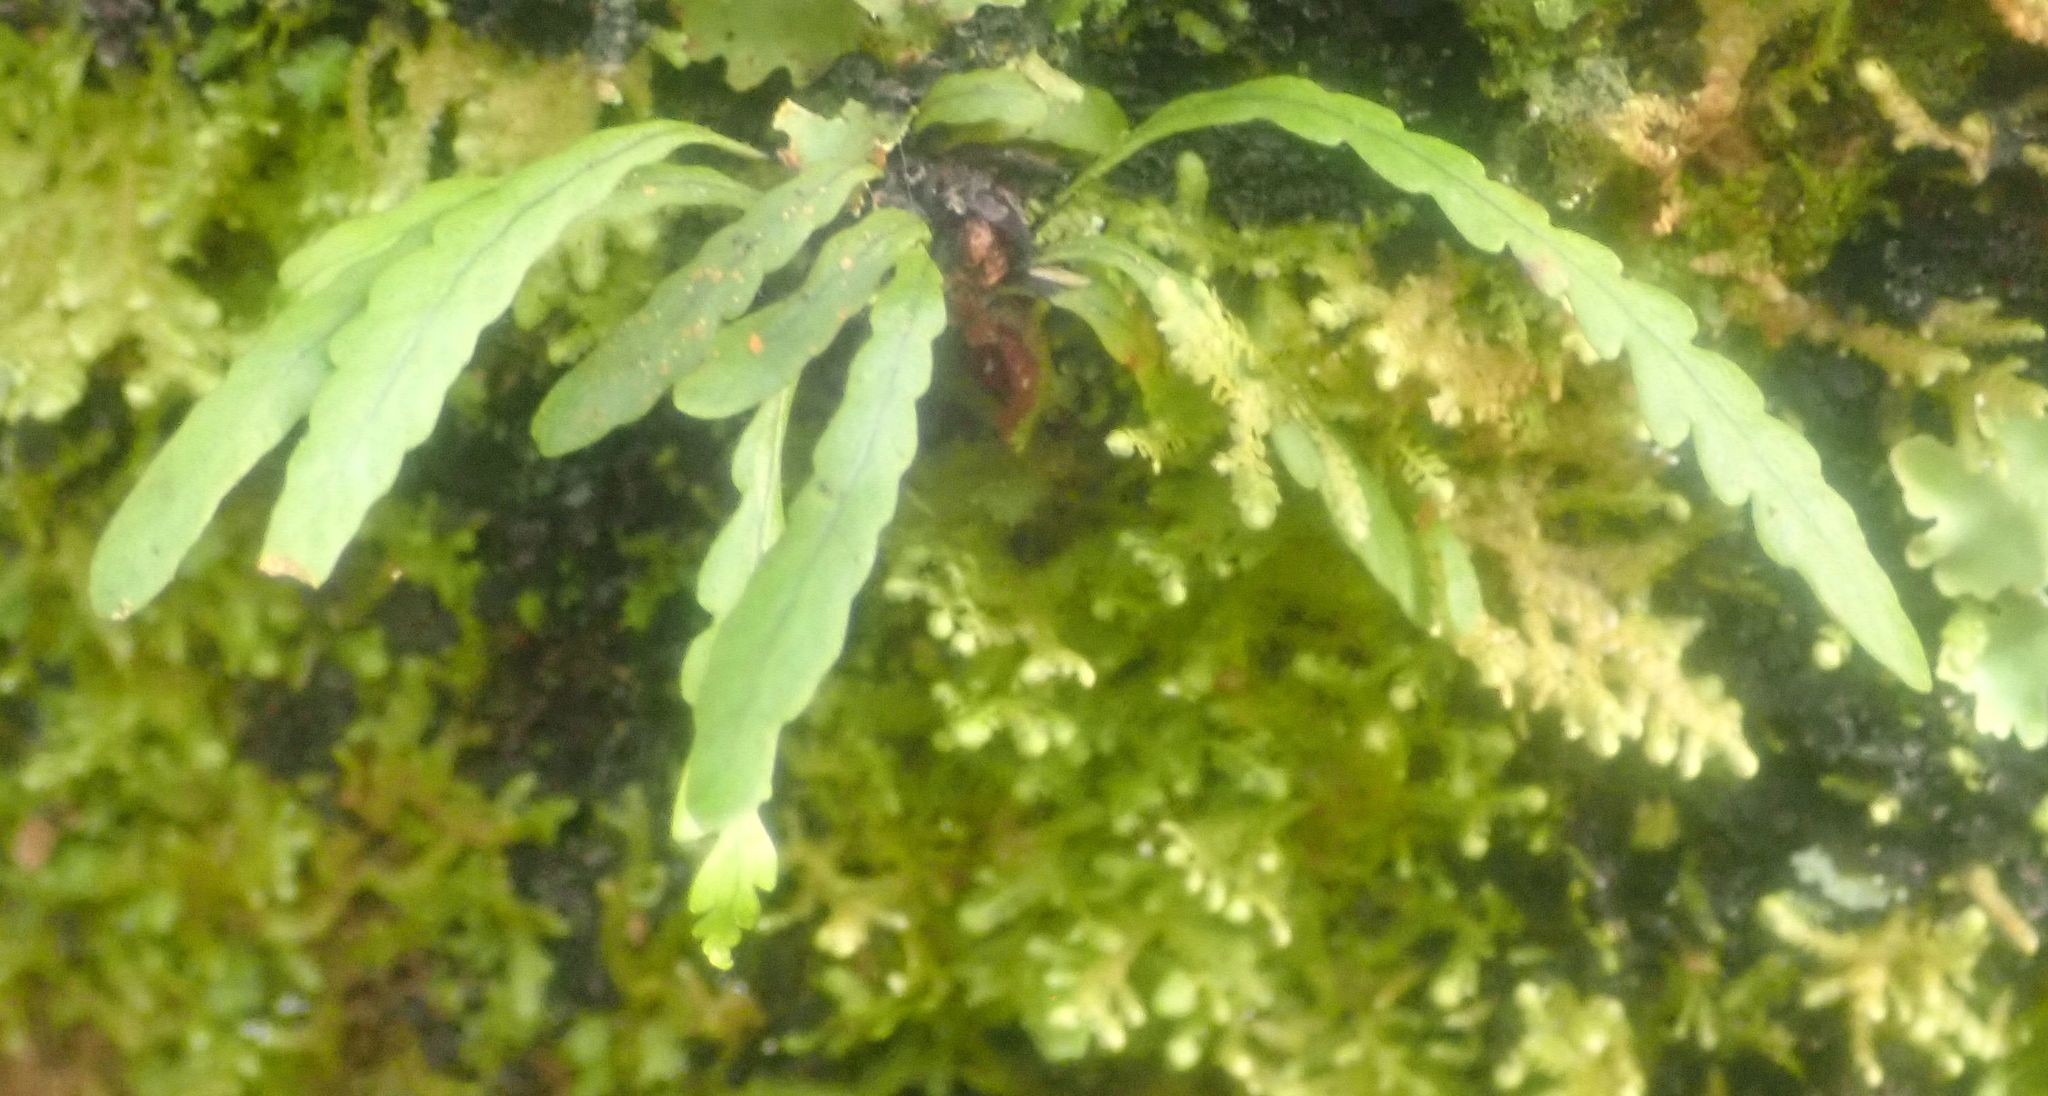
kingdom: Plantae
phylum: Tracheophyta
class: Polypodiopsida
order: Polypodiales
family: Polypodiaceae
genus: Notogrammitis
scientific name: Notogrammitis heterophylla
